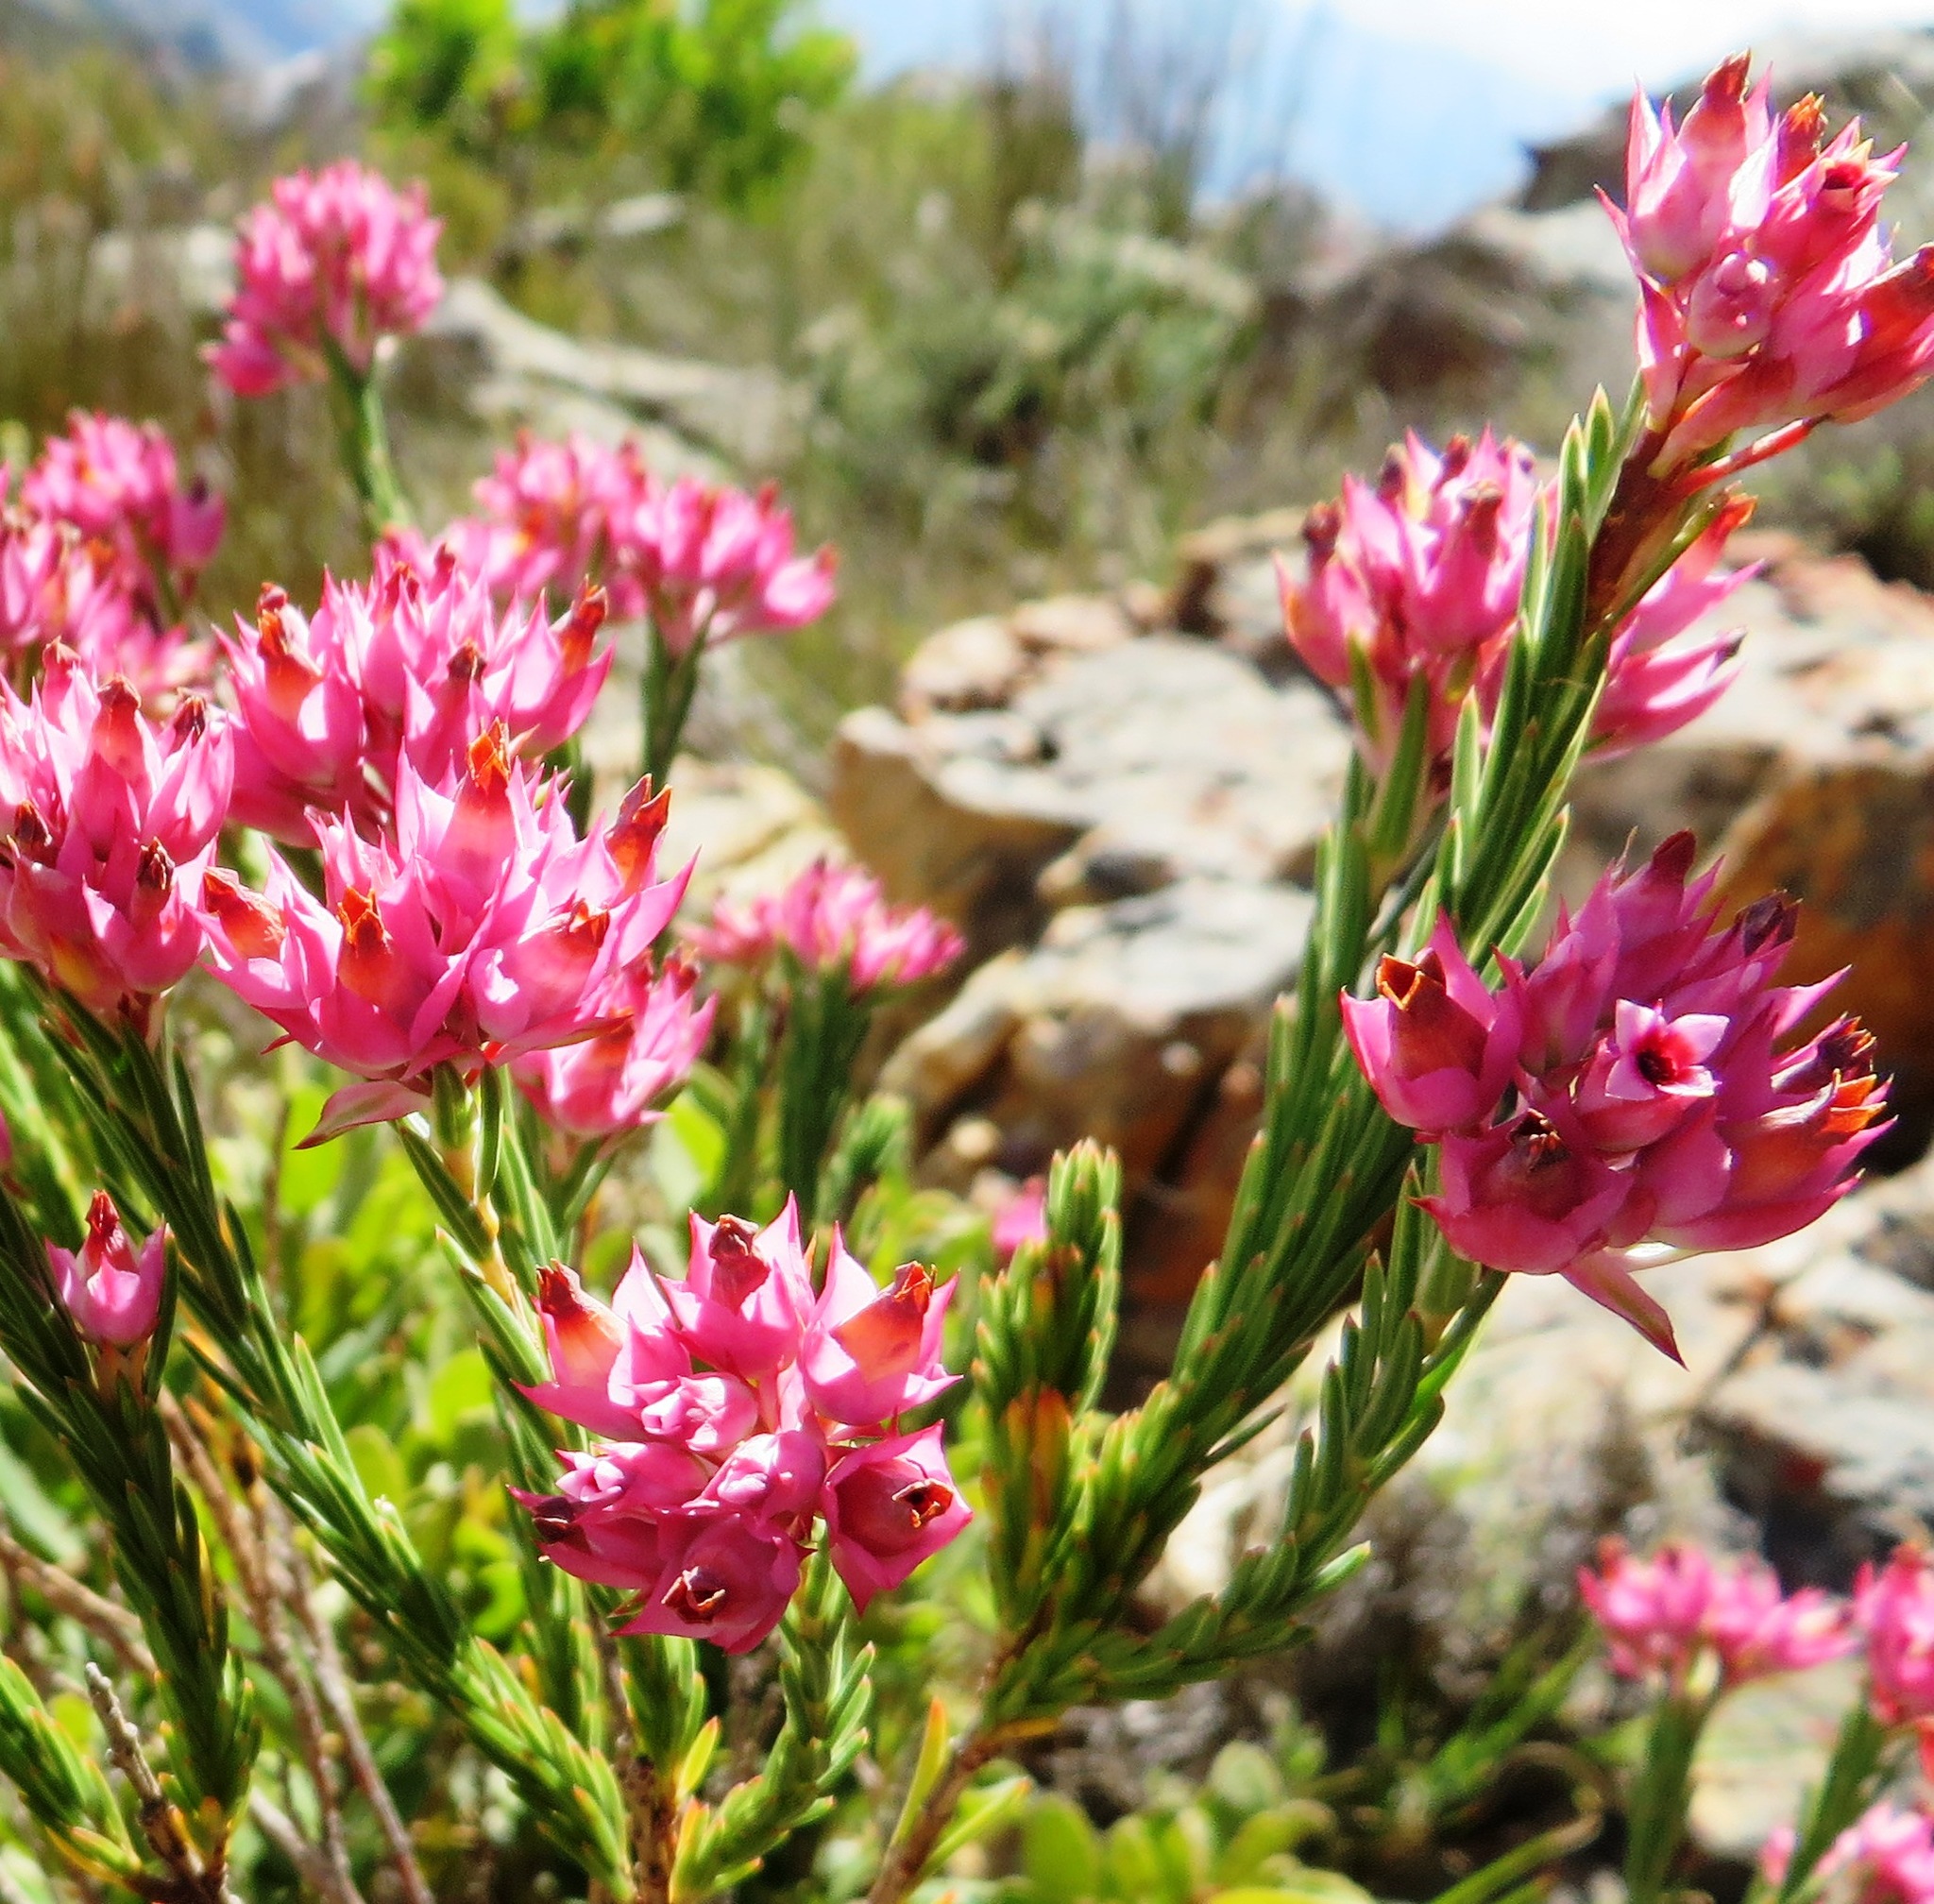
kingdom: Plantae
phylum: Tracheophyta
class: Magnoliopsida
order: Ericales
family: Ericaceae
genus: Erica
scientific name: Erica taxifolia
